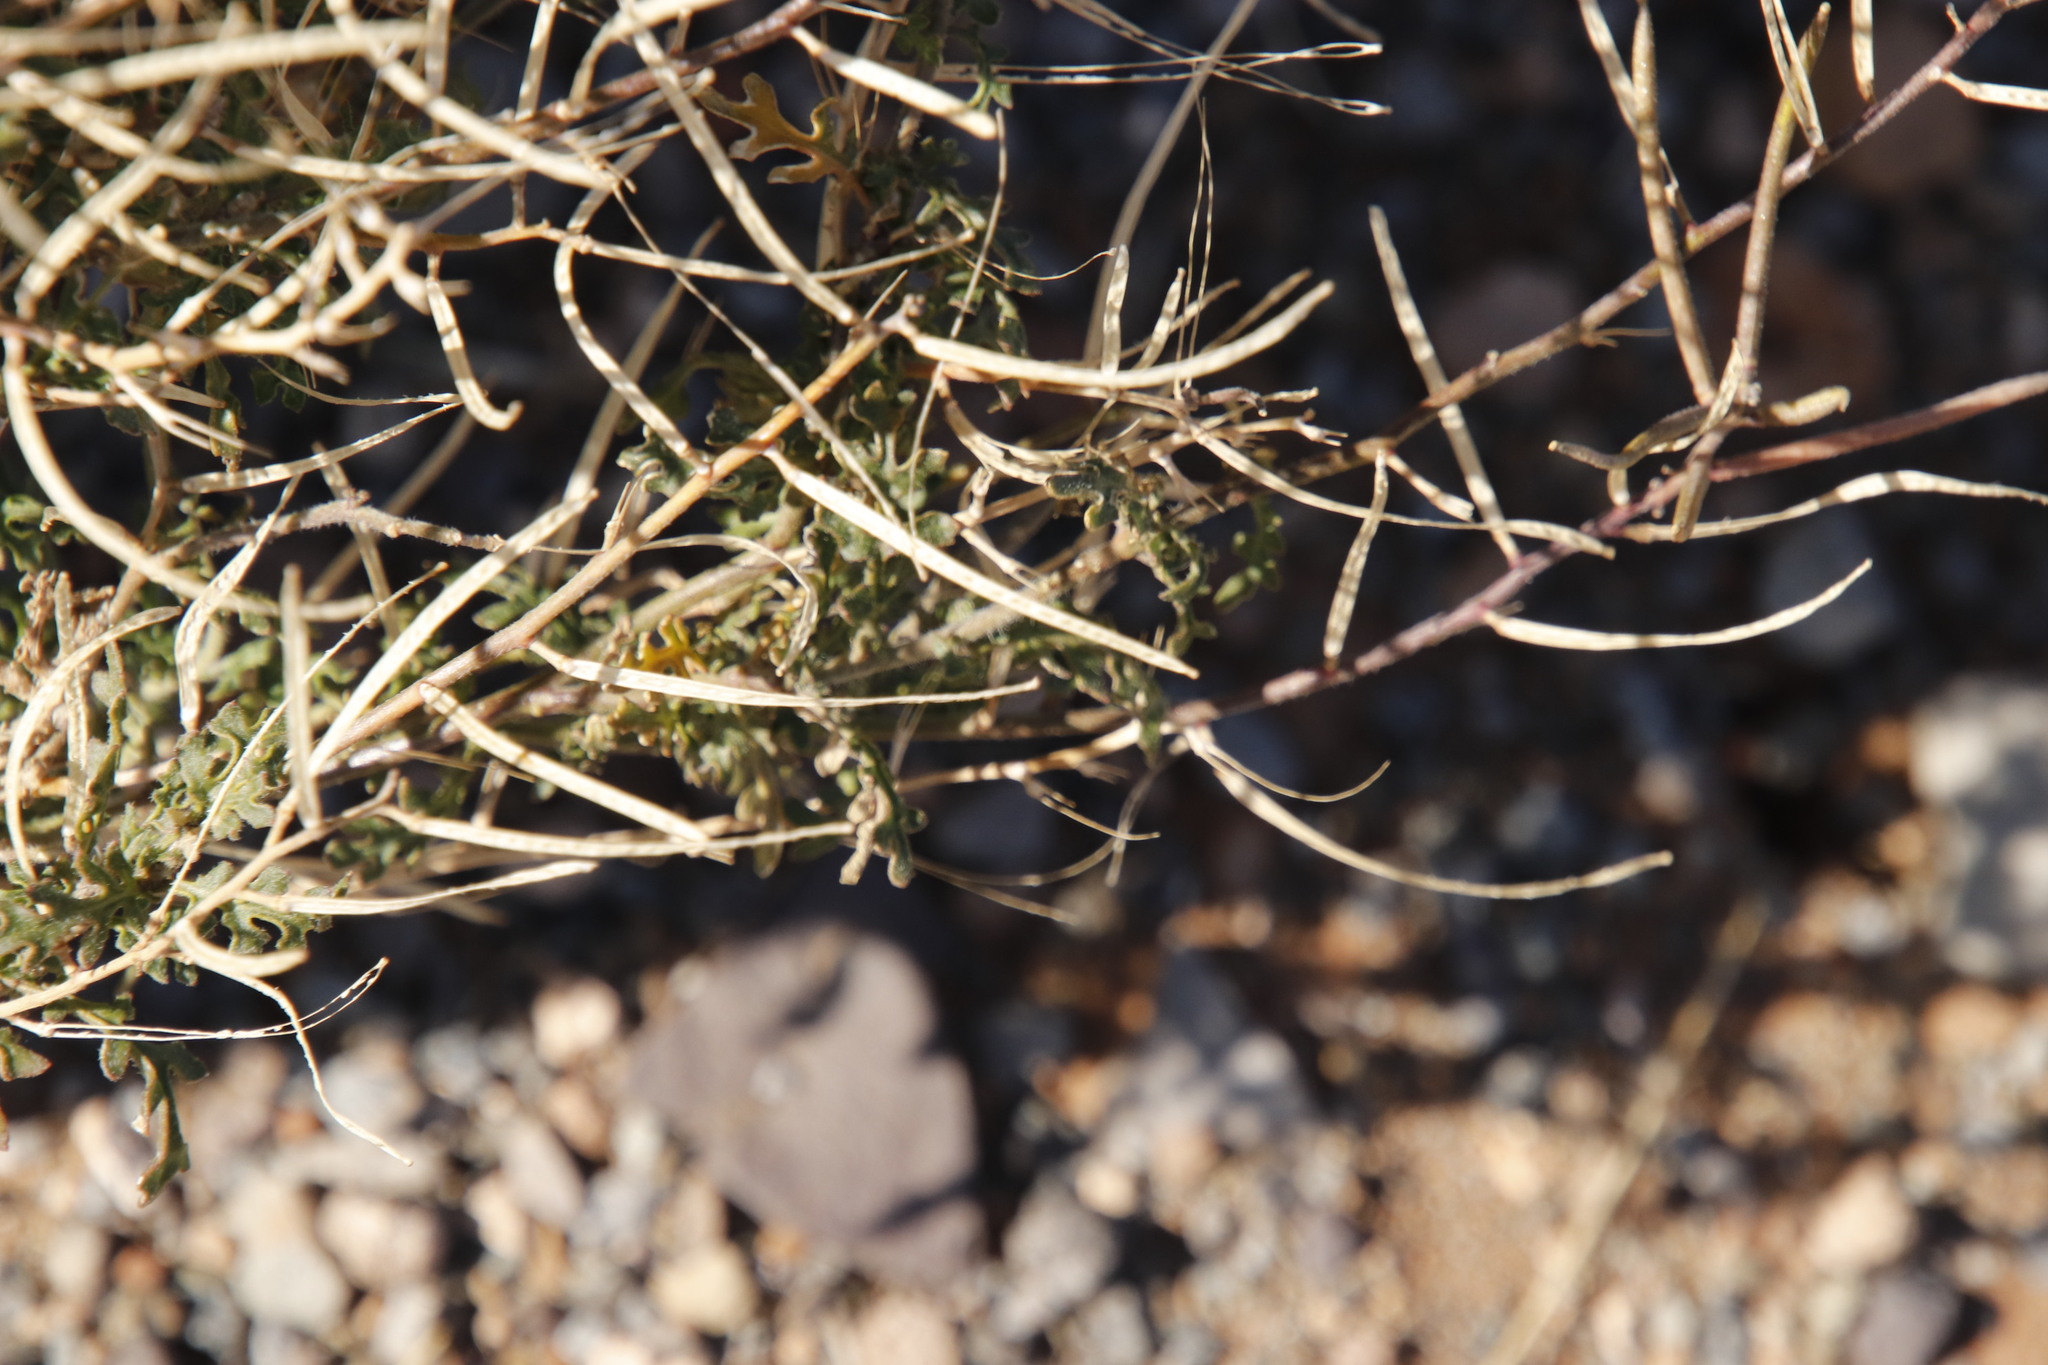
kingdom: Plantae
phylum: Tracheophyta
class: Magnoliopsida
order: Brassicales
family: Brassicaceae
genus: Sisymbrium
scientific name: Sisymbrium burchellii
